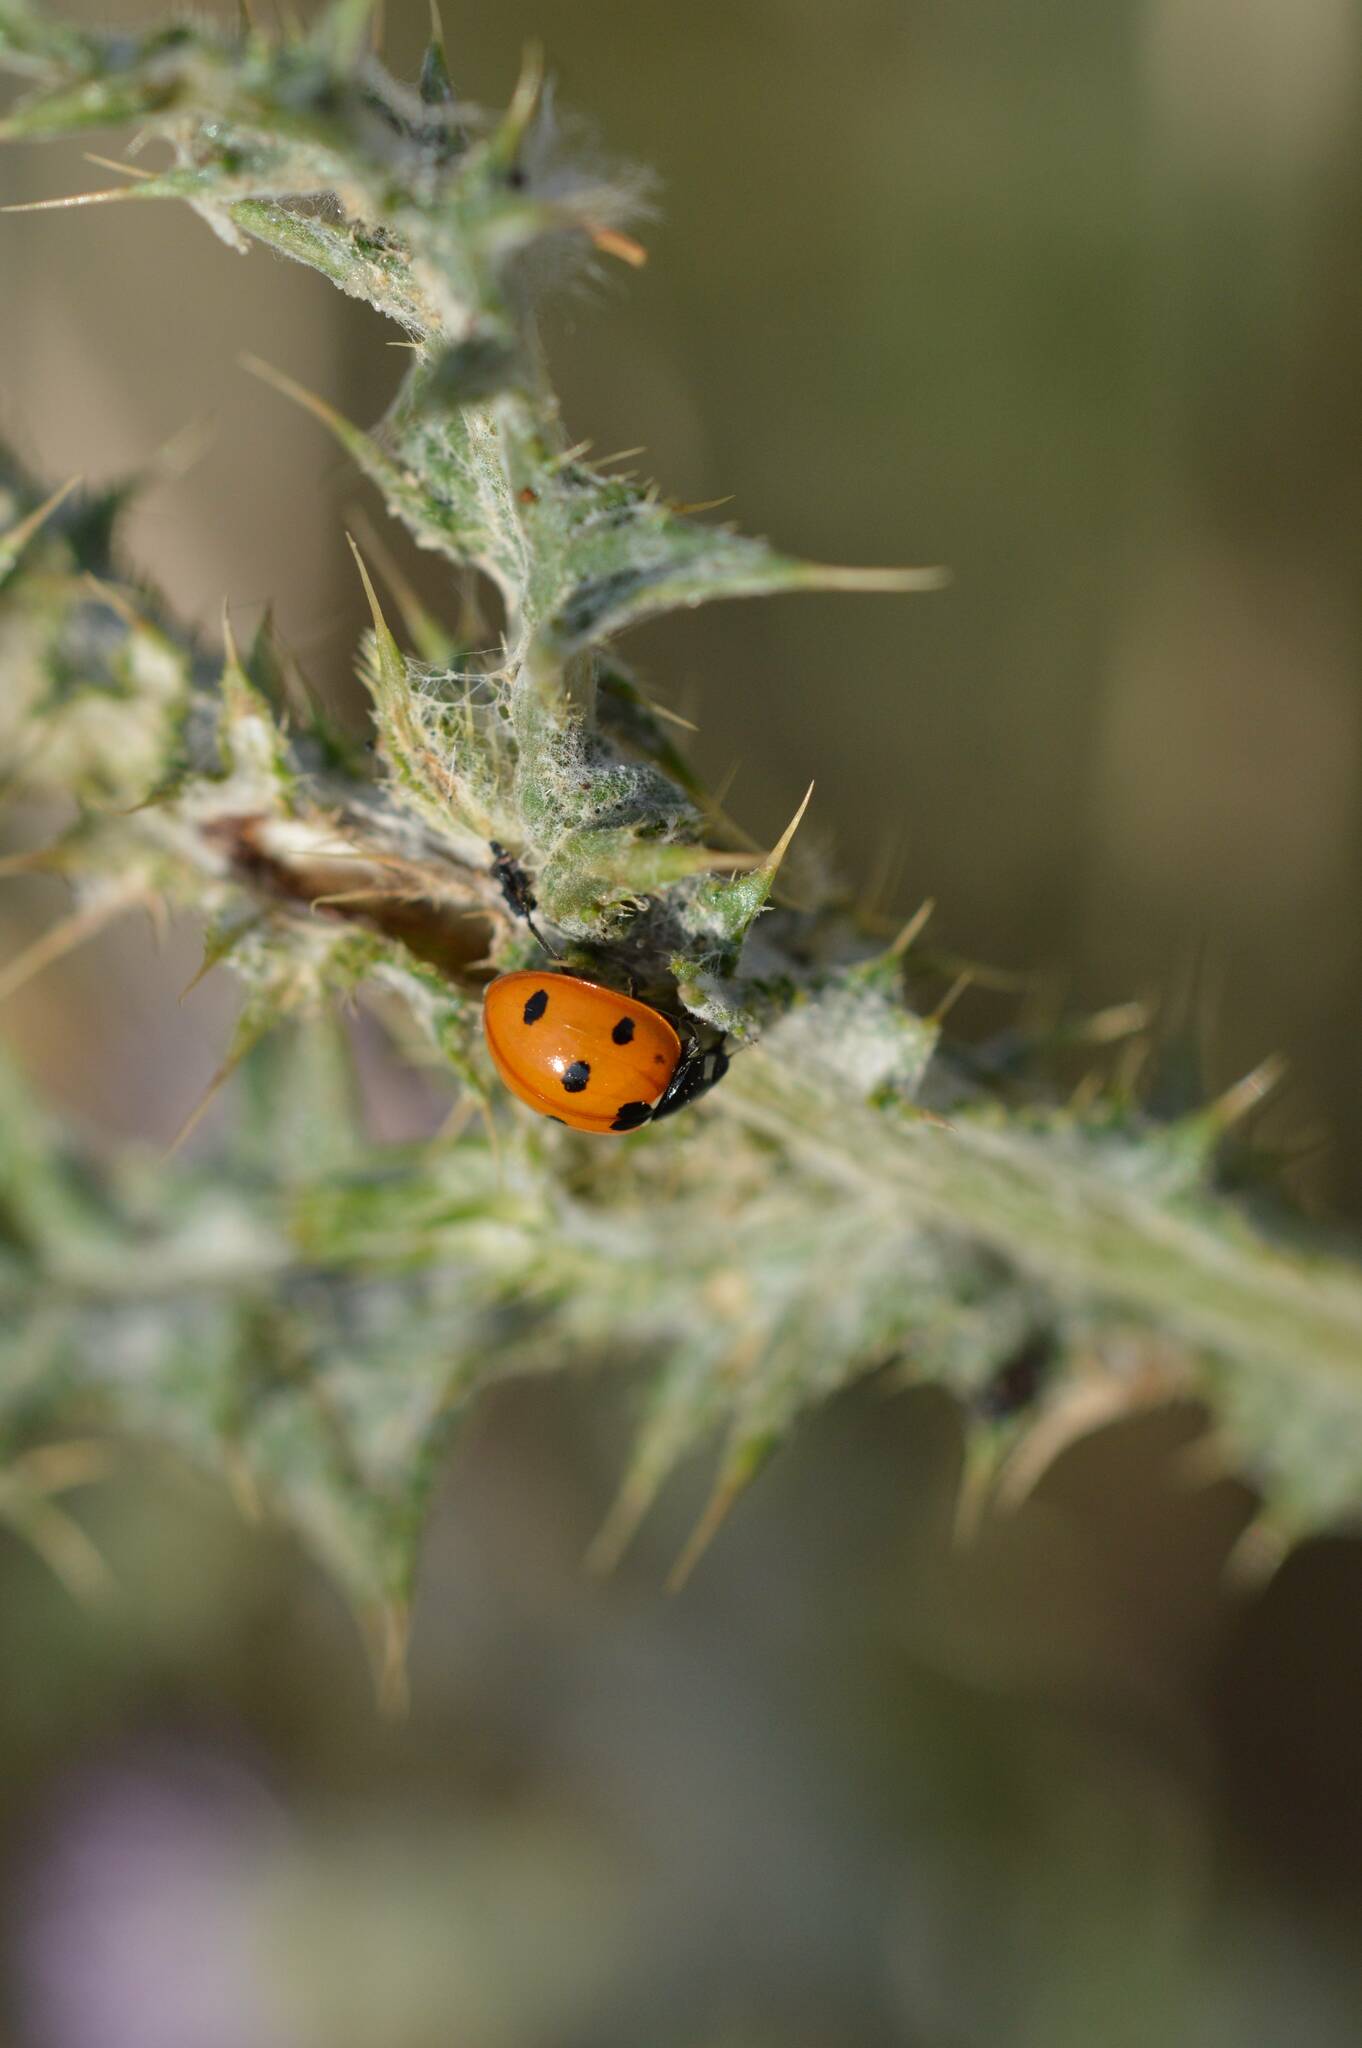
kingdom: Animalia
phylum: Arthropoda
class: Insecta
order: Coleoptera
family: Coccinellidae
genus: Coccinella
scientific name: Coccinella algerica
